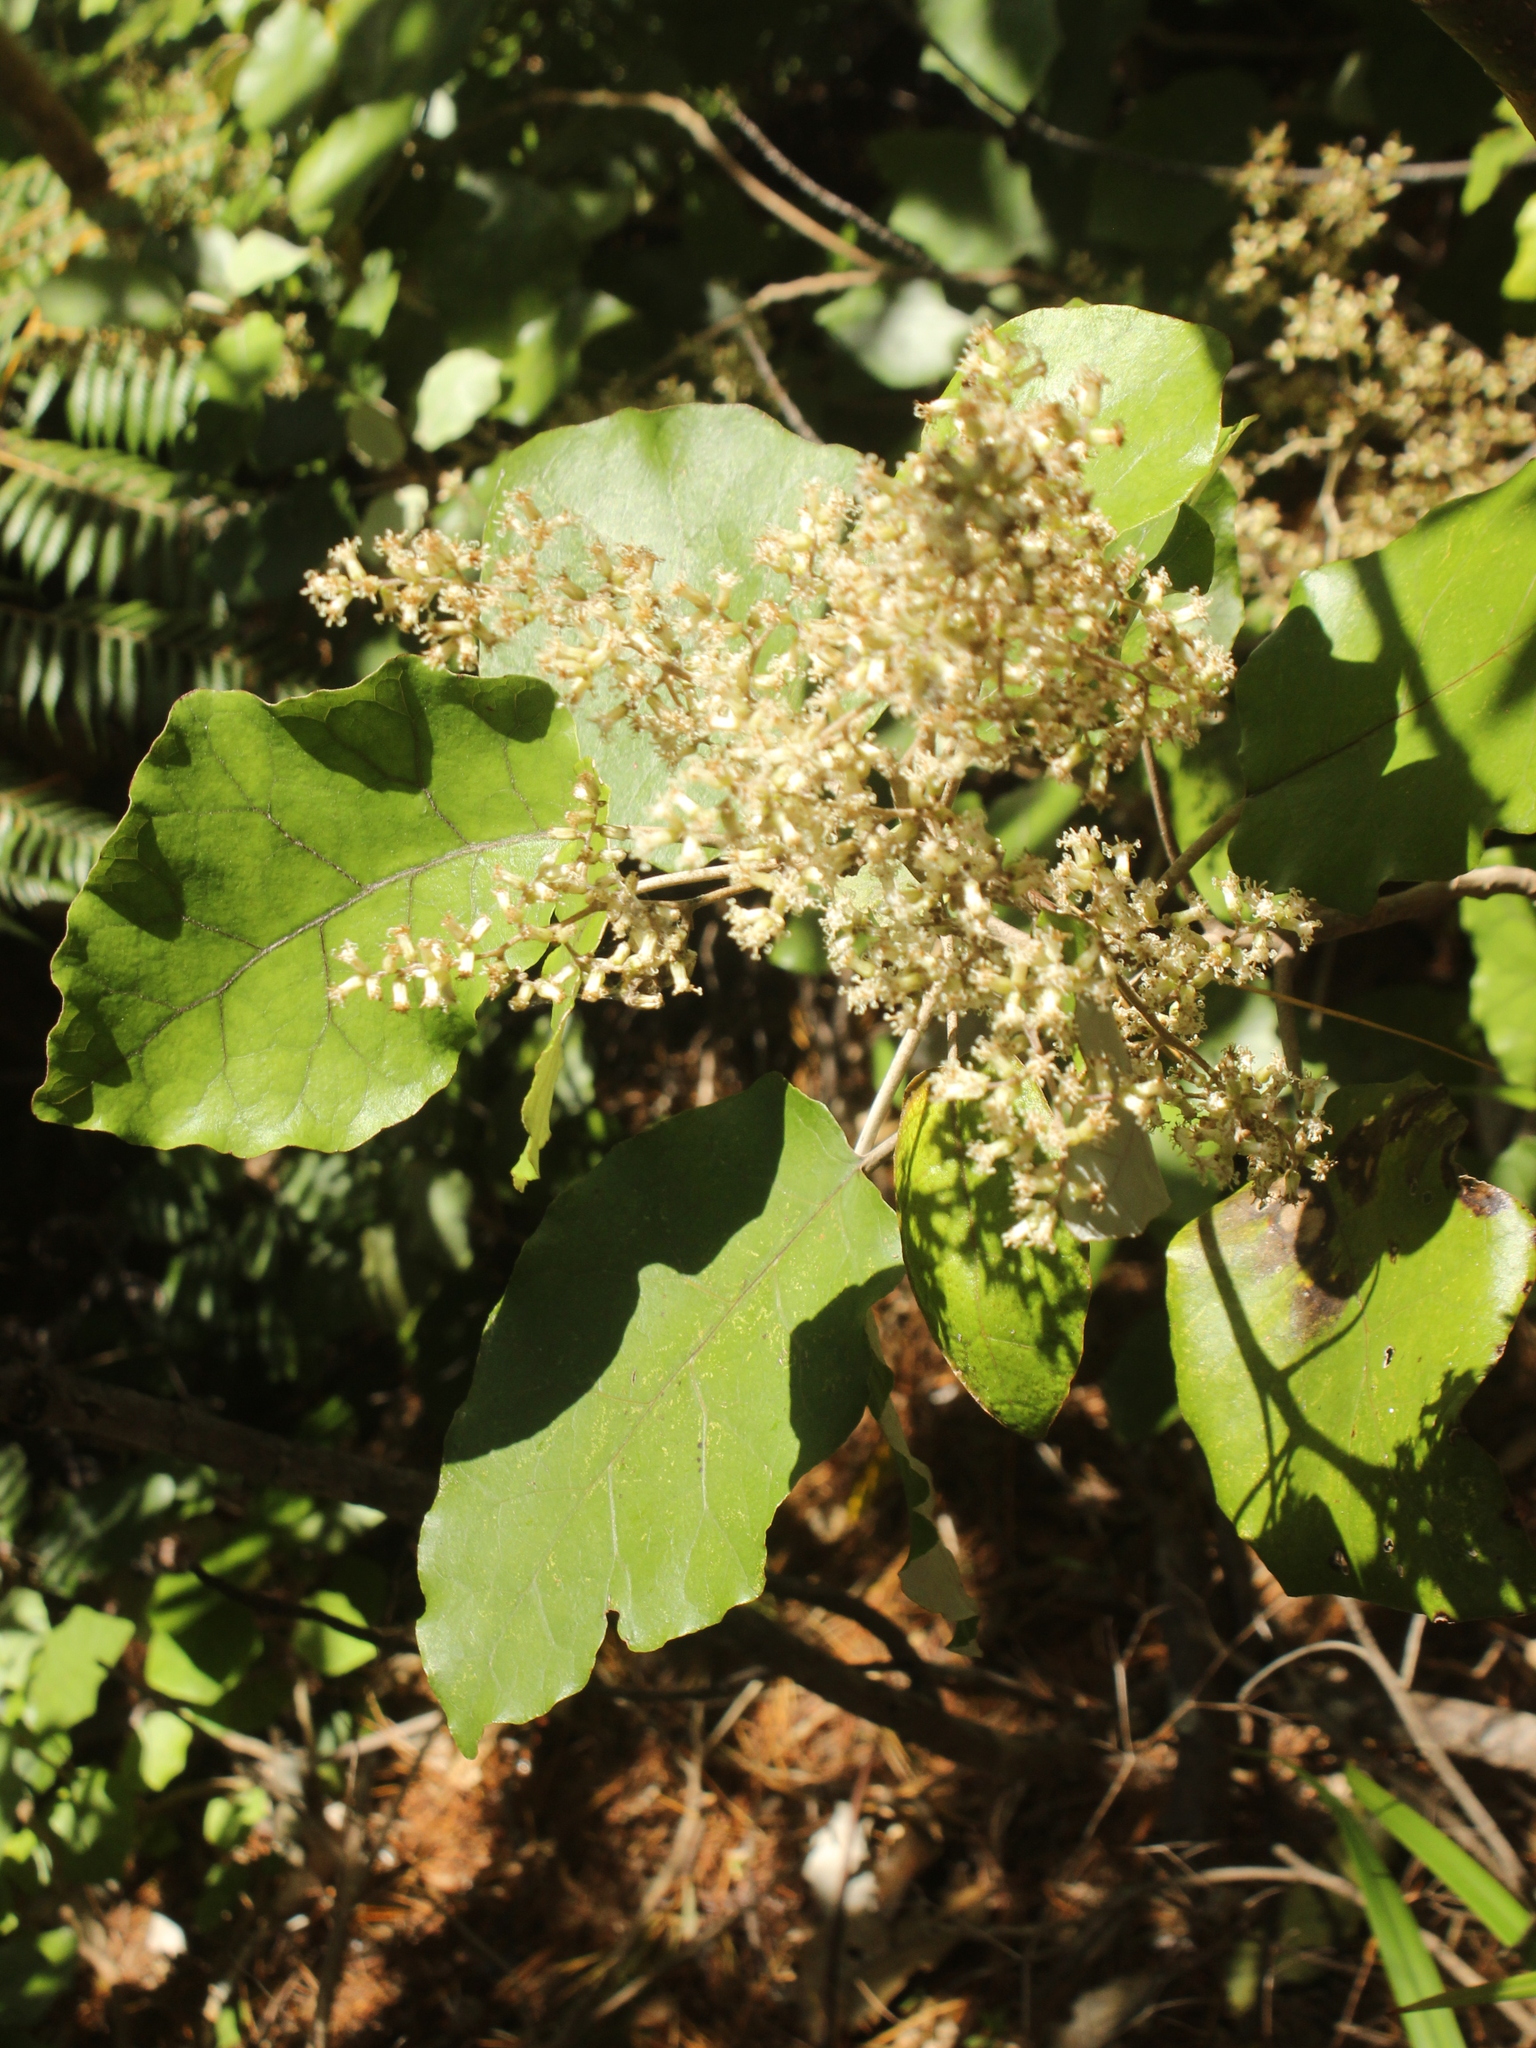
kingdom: Plantae
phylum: Tracheophyta
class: Magnoliopsida
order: Asterales
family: Asteraceae
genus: Brachyglottis
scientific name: Brachyglottis repanda
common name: Hedge ragwort
